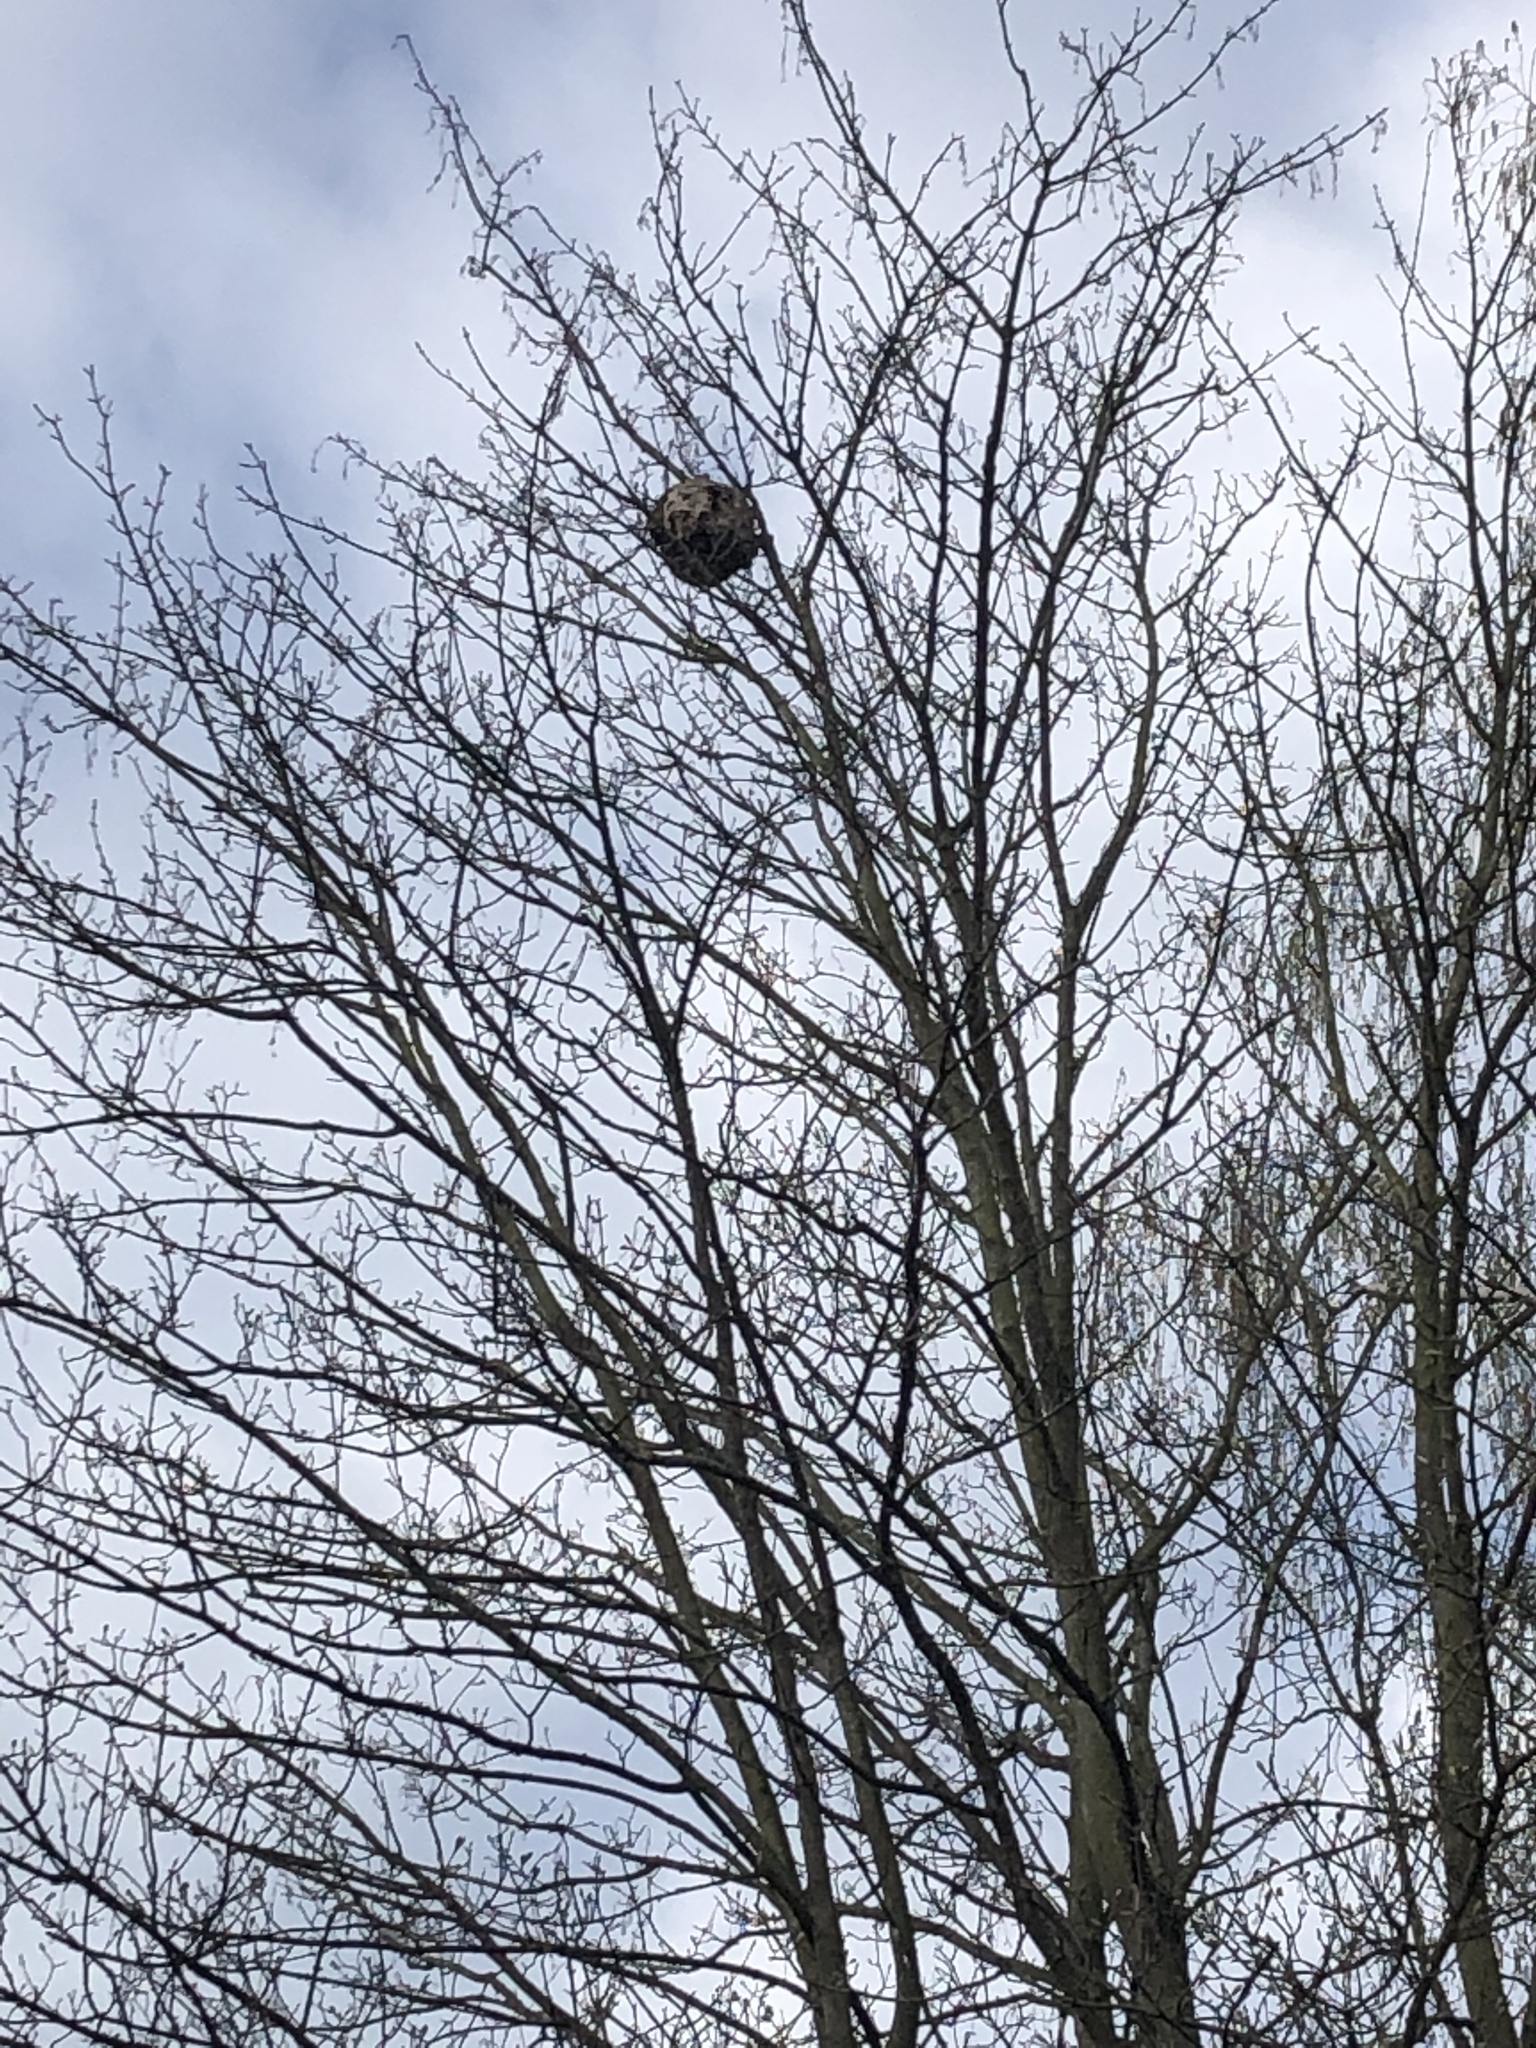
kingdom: Animalia
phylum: Arthropoda
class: Insecta
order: Hymenoptera
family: Vespidae
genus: Vespa
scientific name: Vespa velutina
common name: Asian hornet
